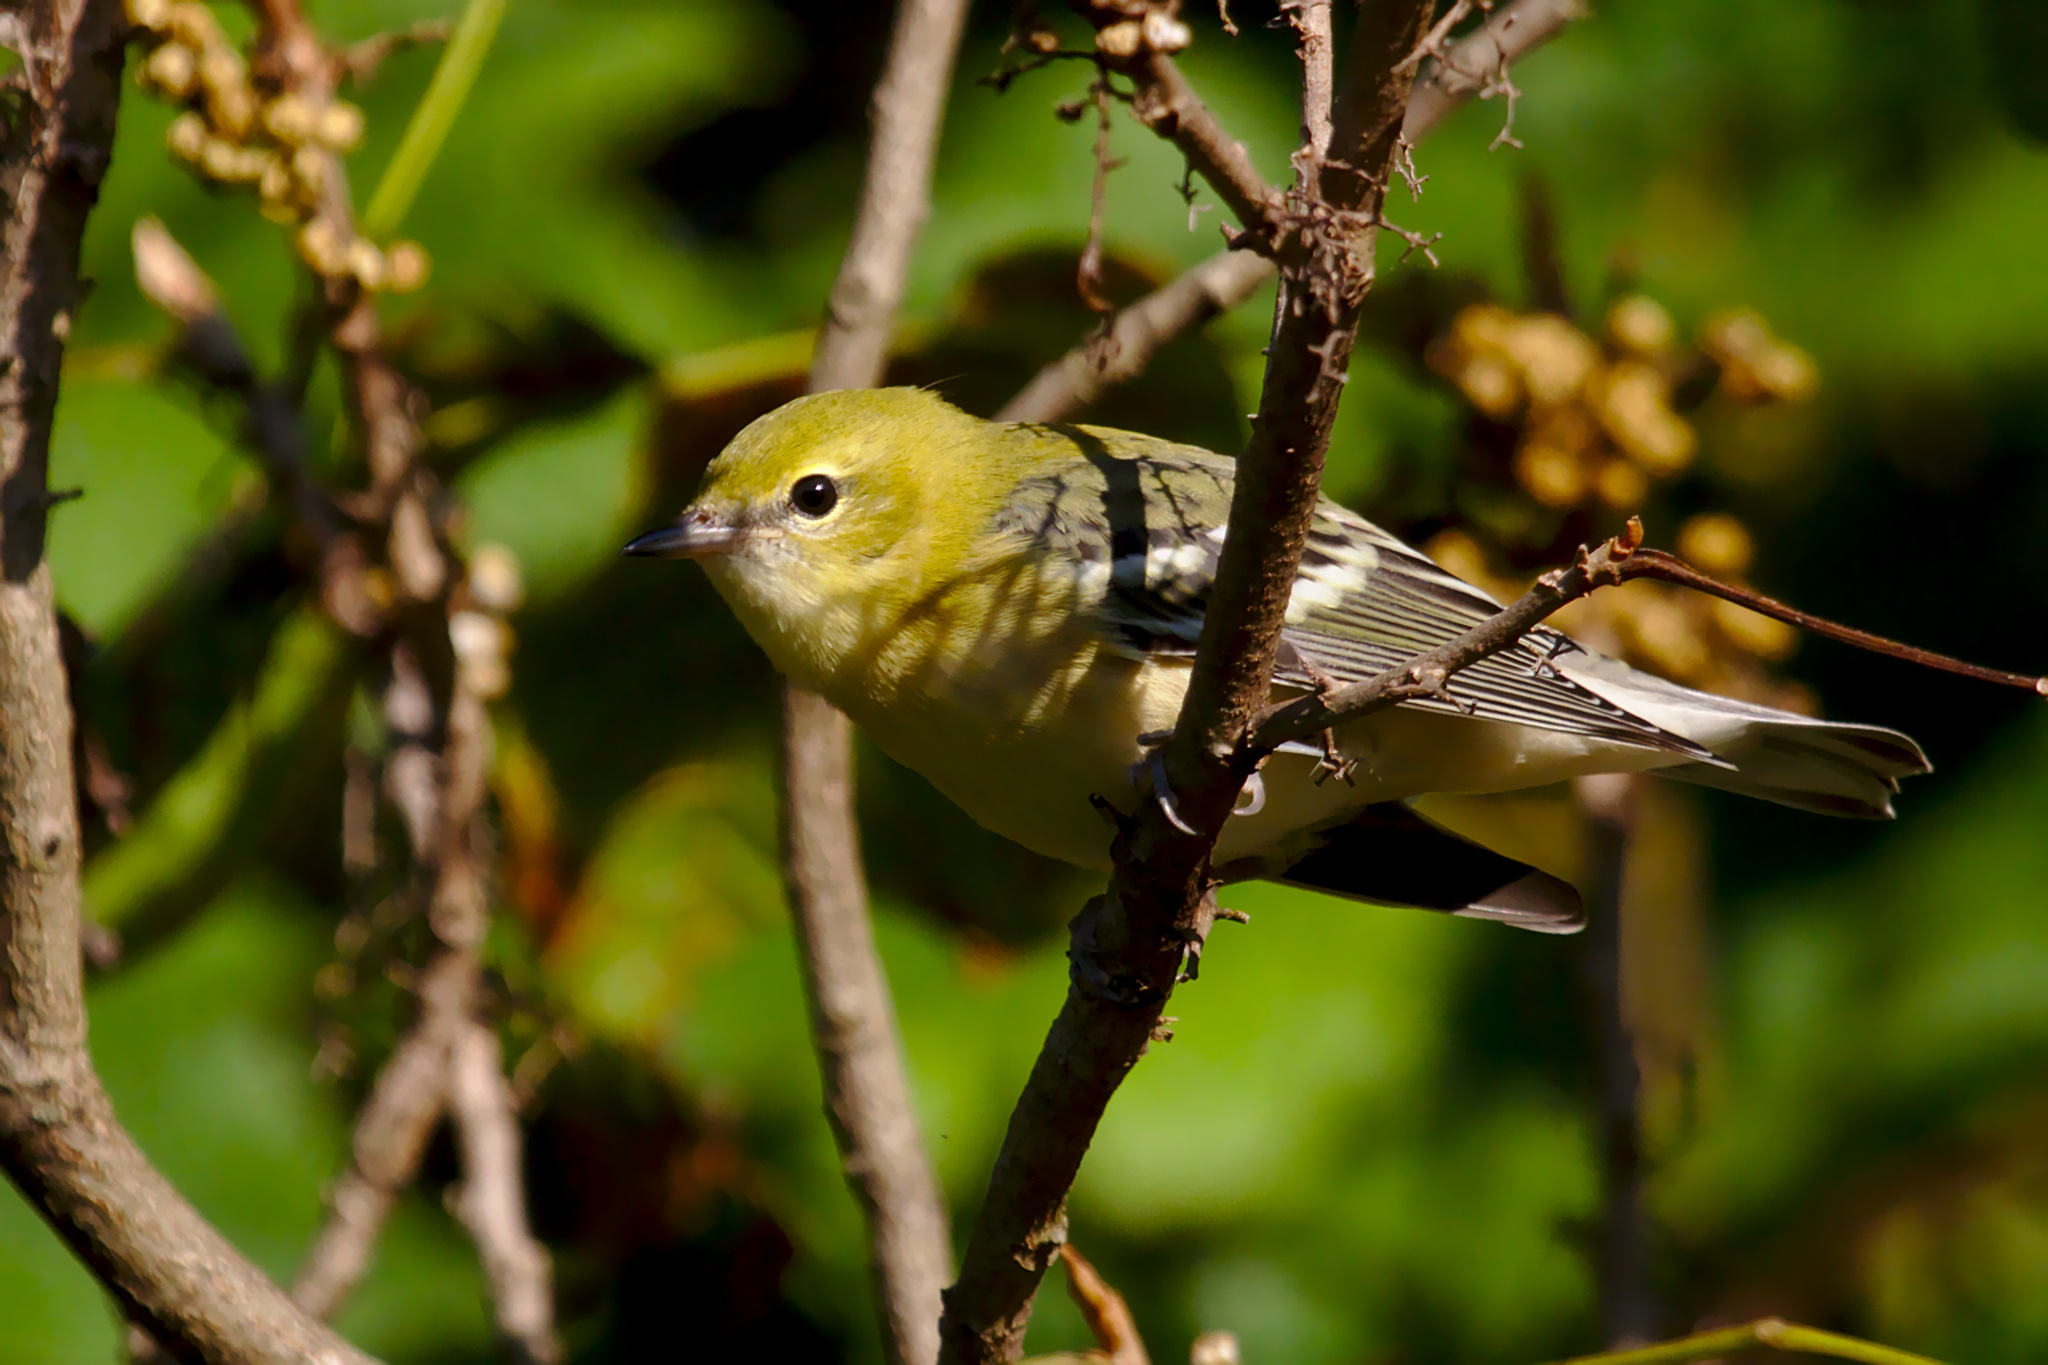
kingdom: Animalia
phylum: Chordata
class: Aves
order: Passeriformes
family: Parulidae
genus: Setophaga
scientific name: Setophaga castanea
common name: Bay-breasted warbler
